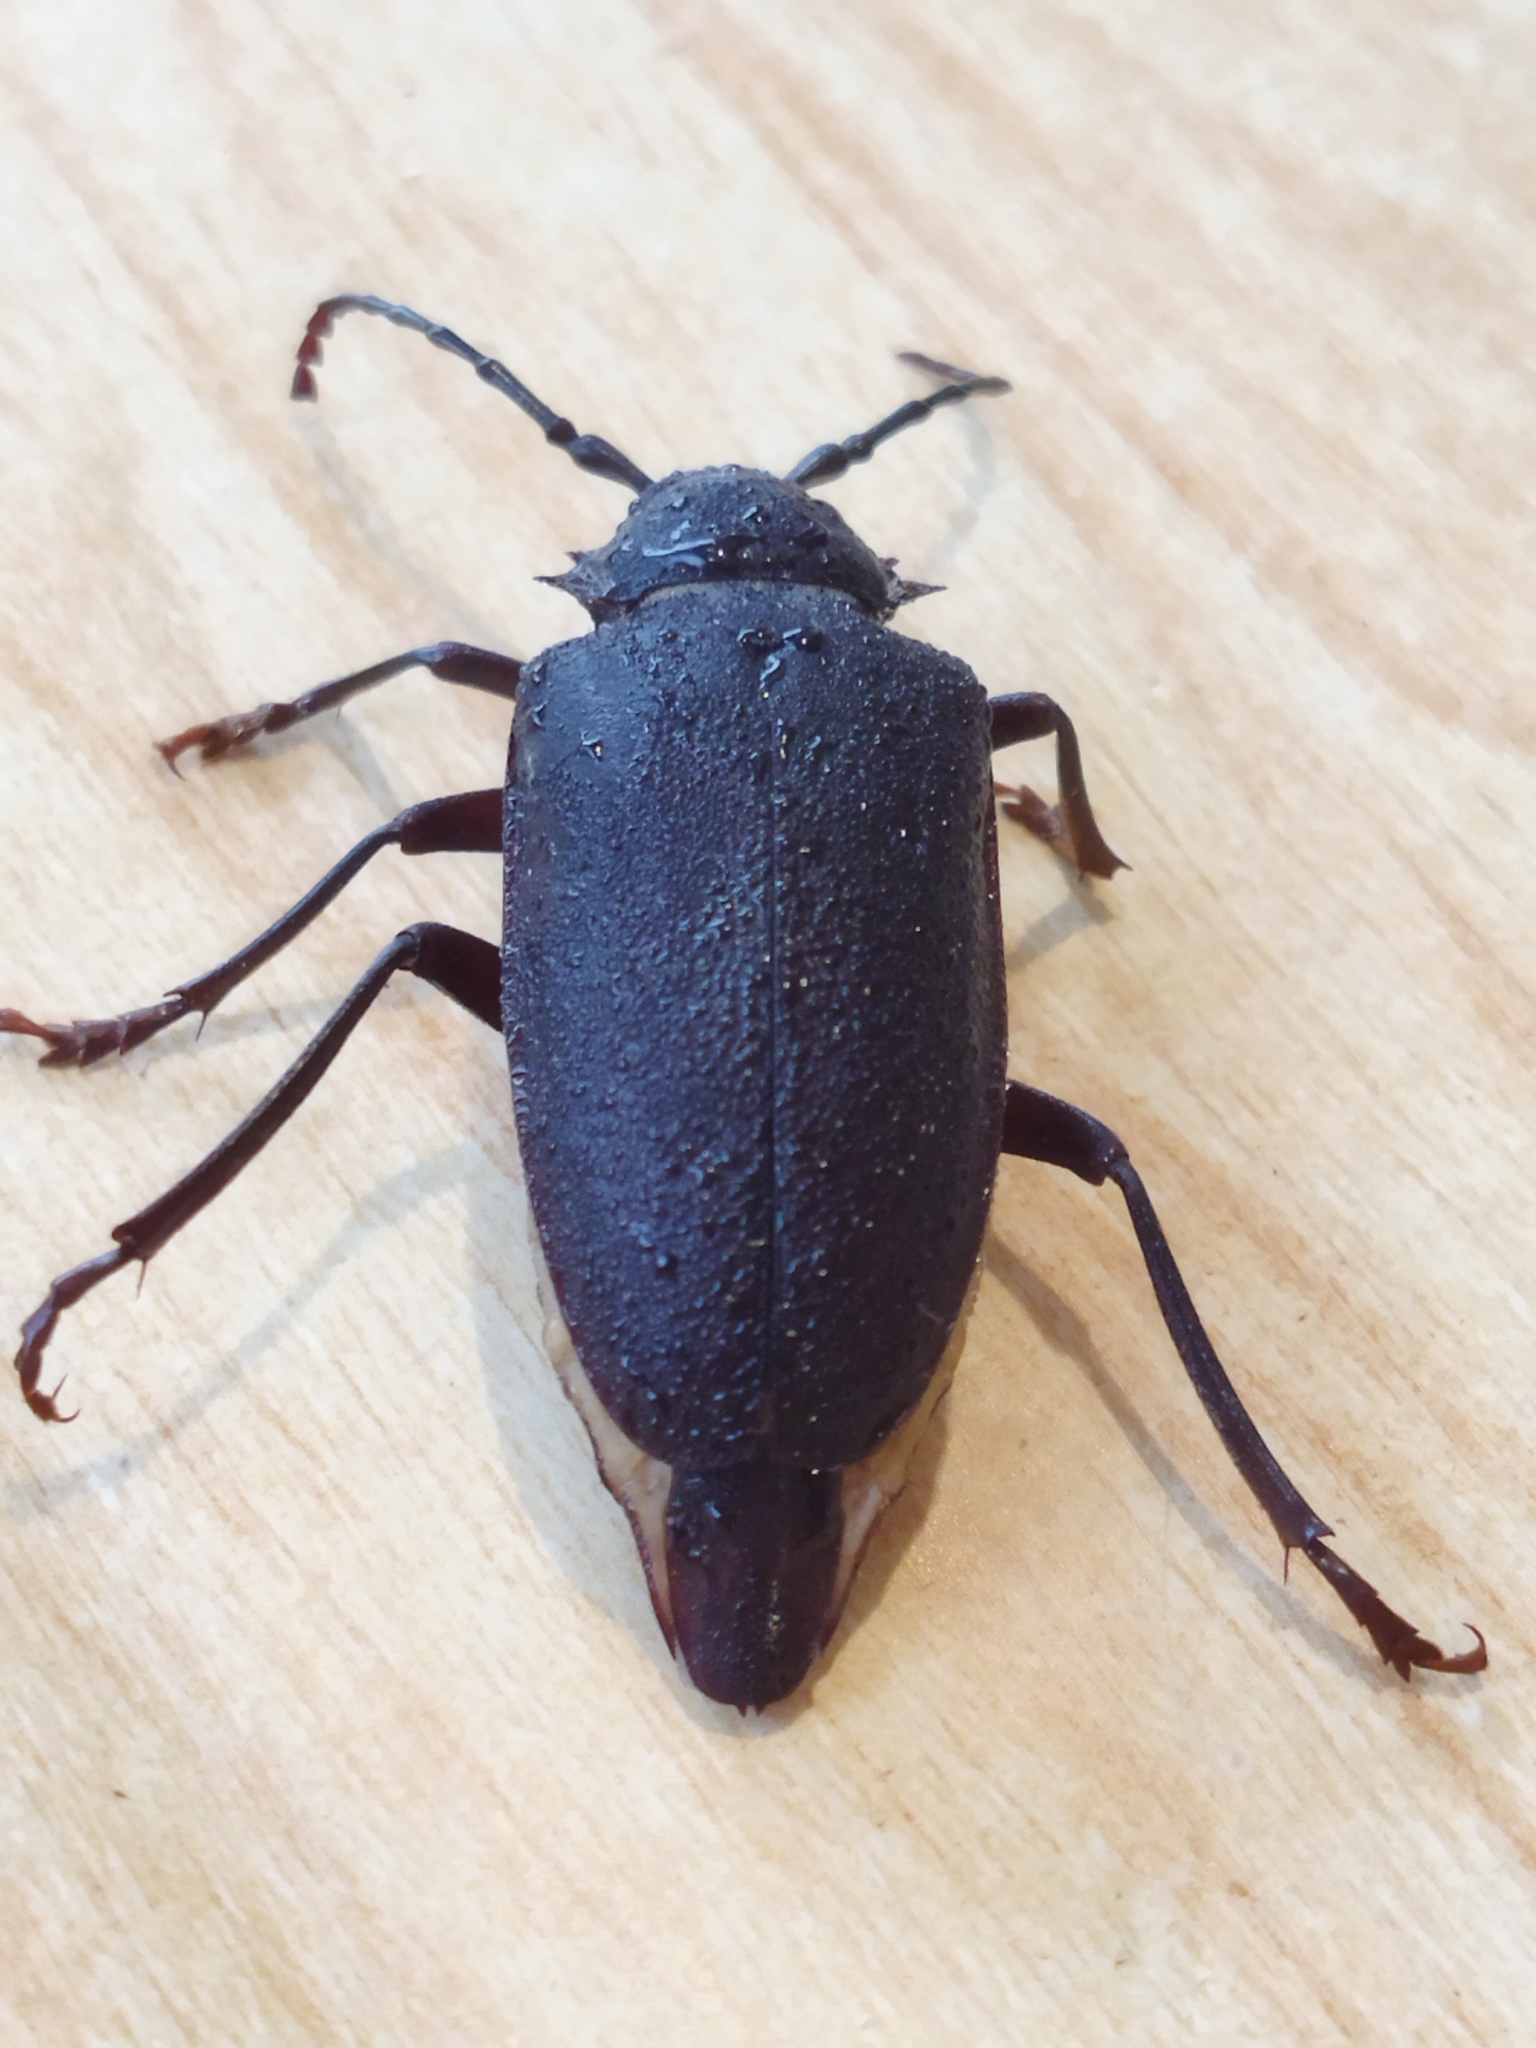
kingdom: Animalia
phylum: Arthropoda
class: Insecta
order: Coleoptera
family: Cerambycidae
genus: Mesoprionus
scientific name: Mesoprionus besikanus
